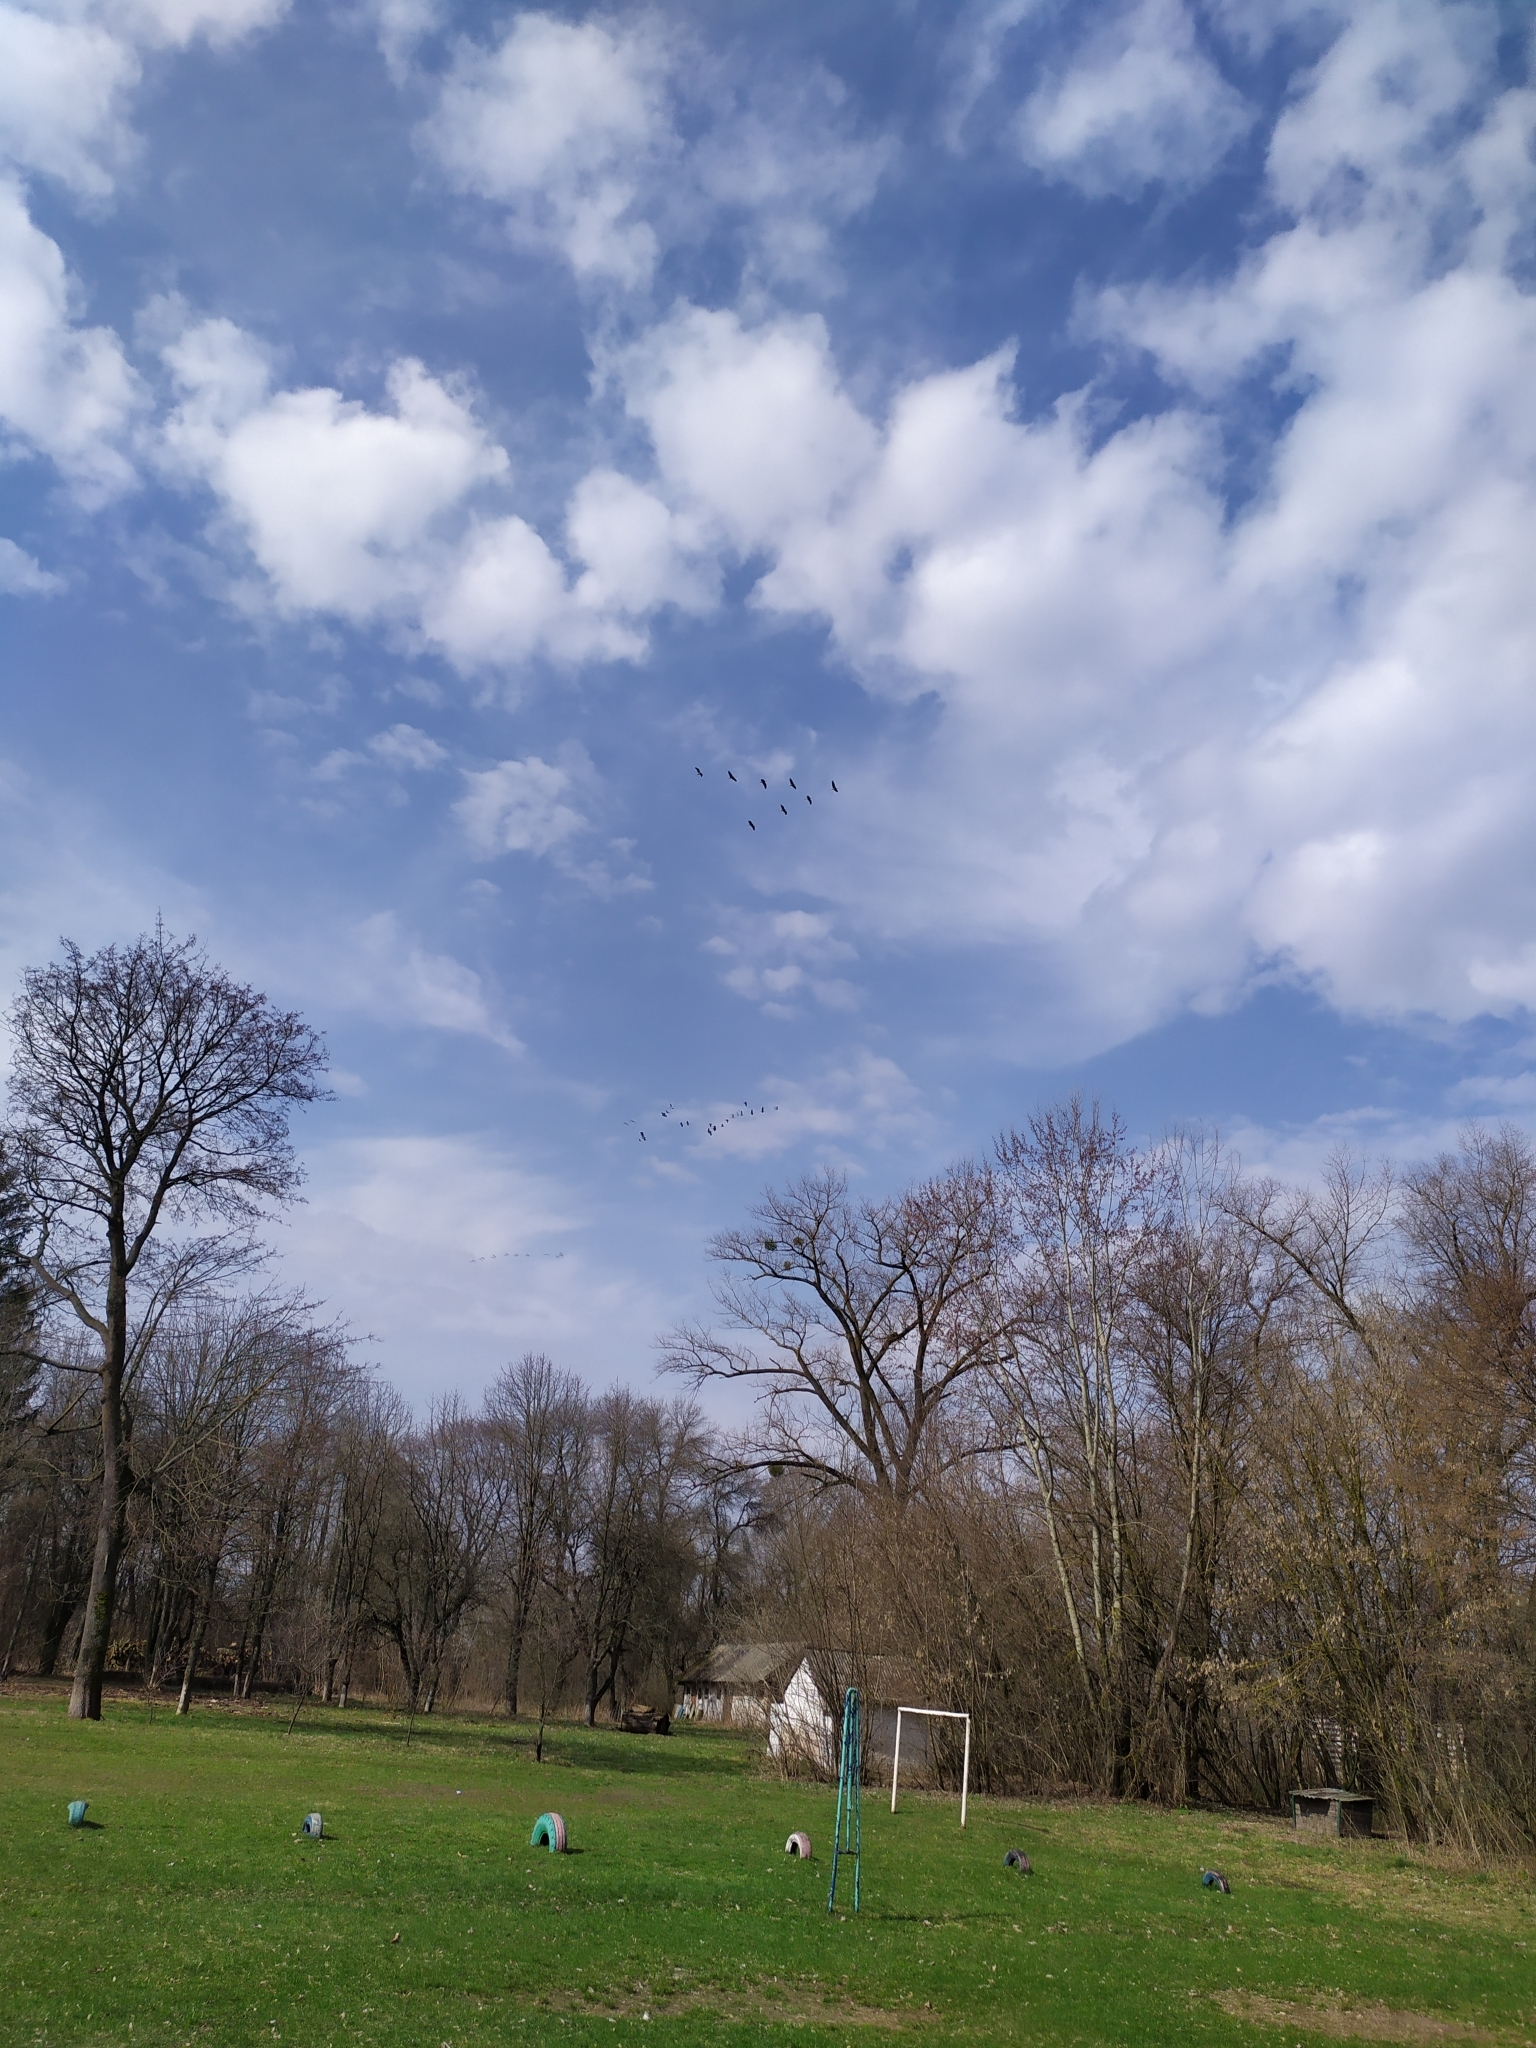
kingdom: Animalia
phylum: Chordata
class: Aves
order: Gruiformes
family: Gruidae
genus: Grus
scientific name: Grus grus
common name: Common crane
